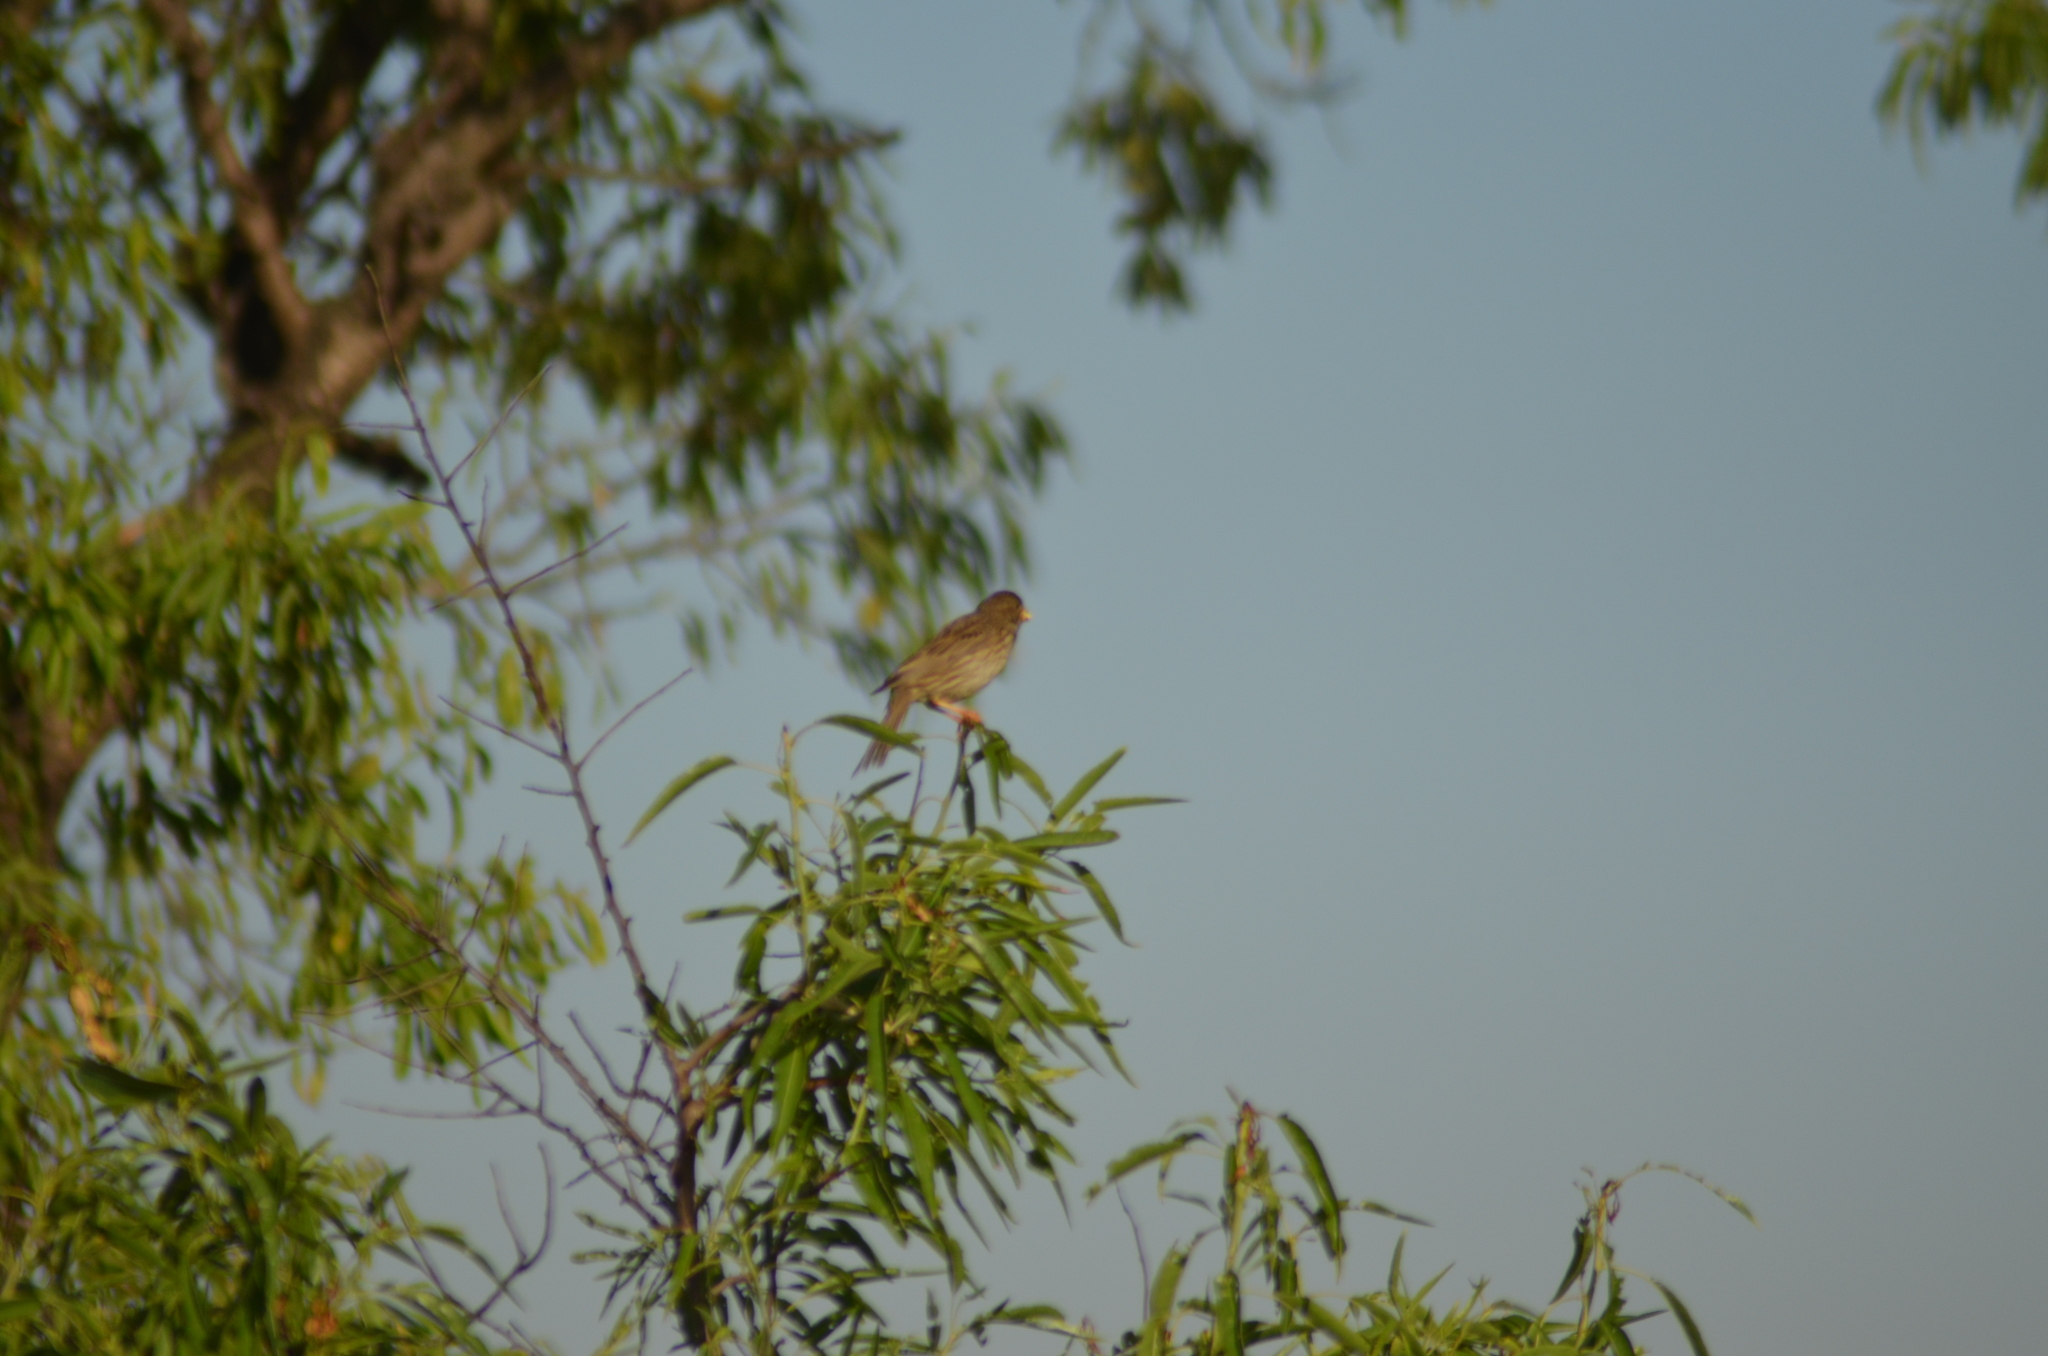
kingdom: Animalia
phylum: Chordata
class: Aves
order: Passeriformes
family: Emberizidae
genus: Emberiza
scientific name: Emberiza calandra
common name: Corn bunting
